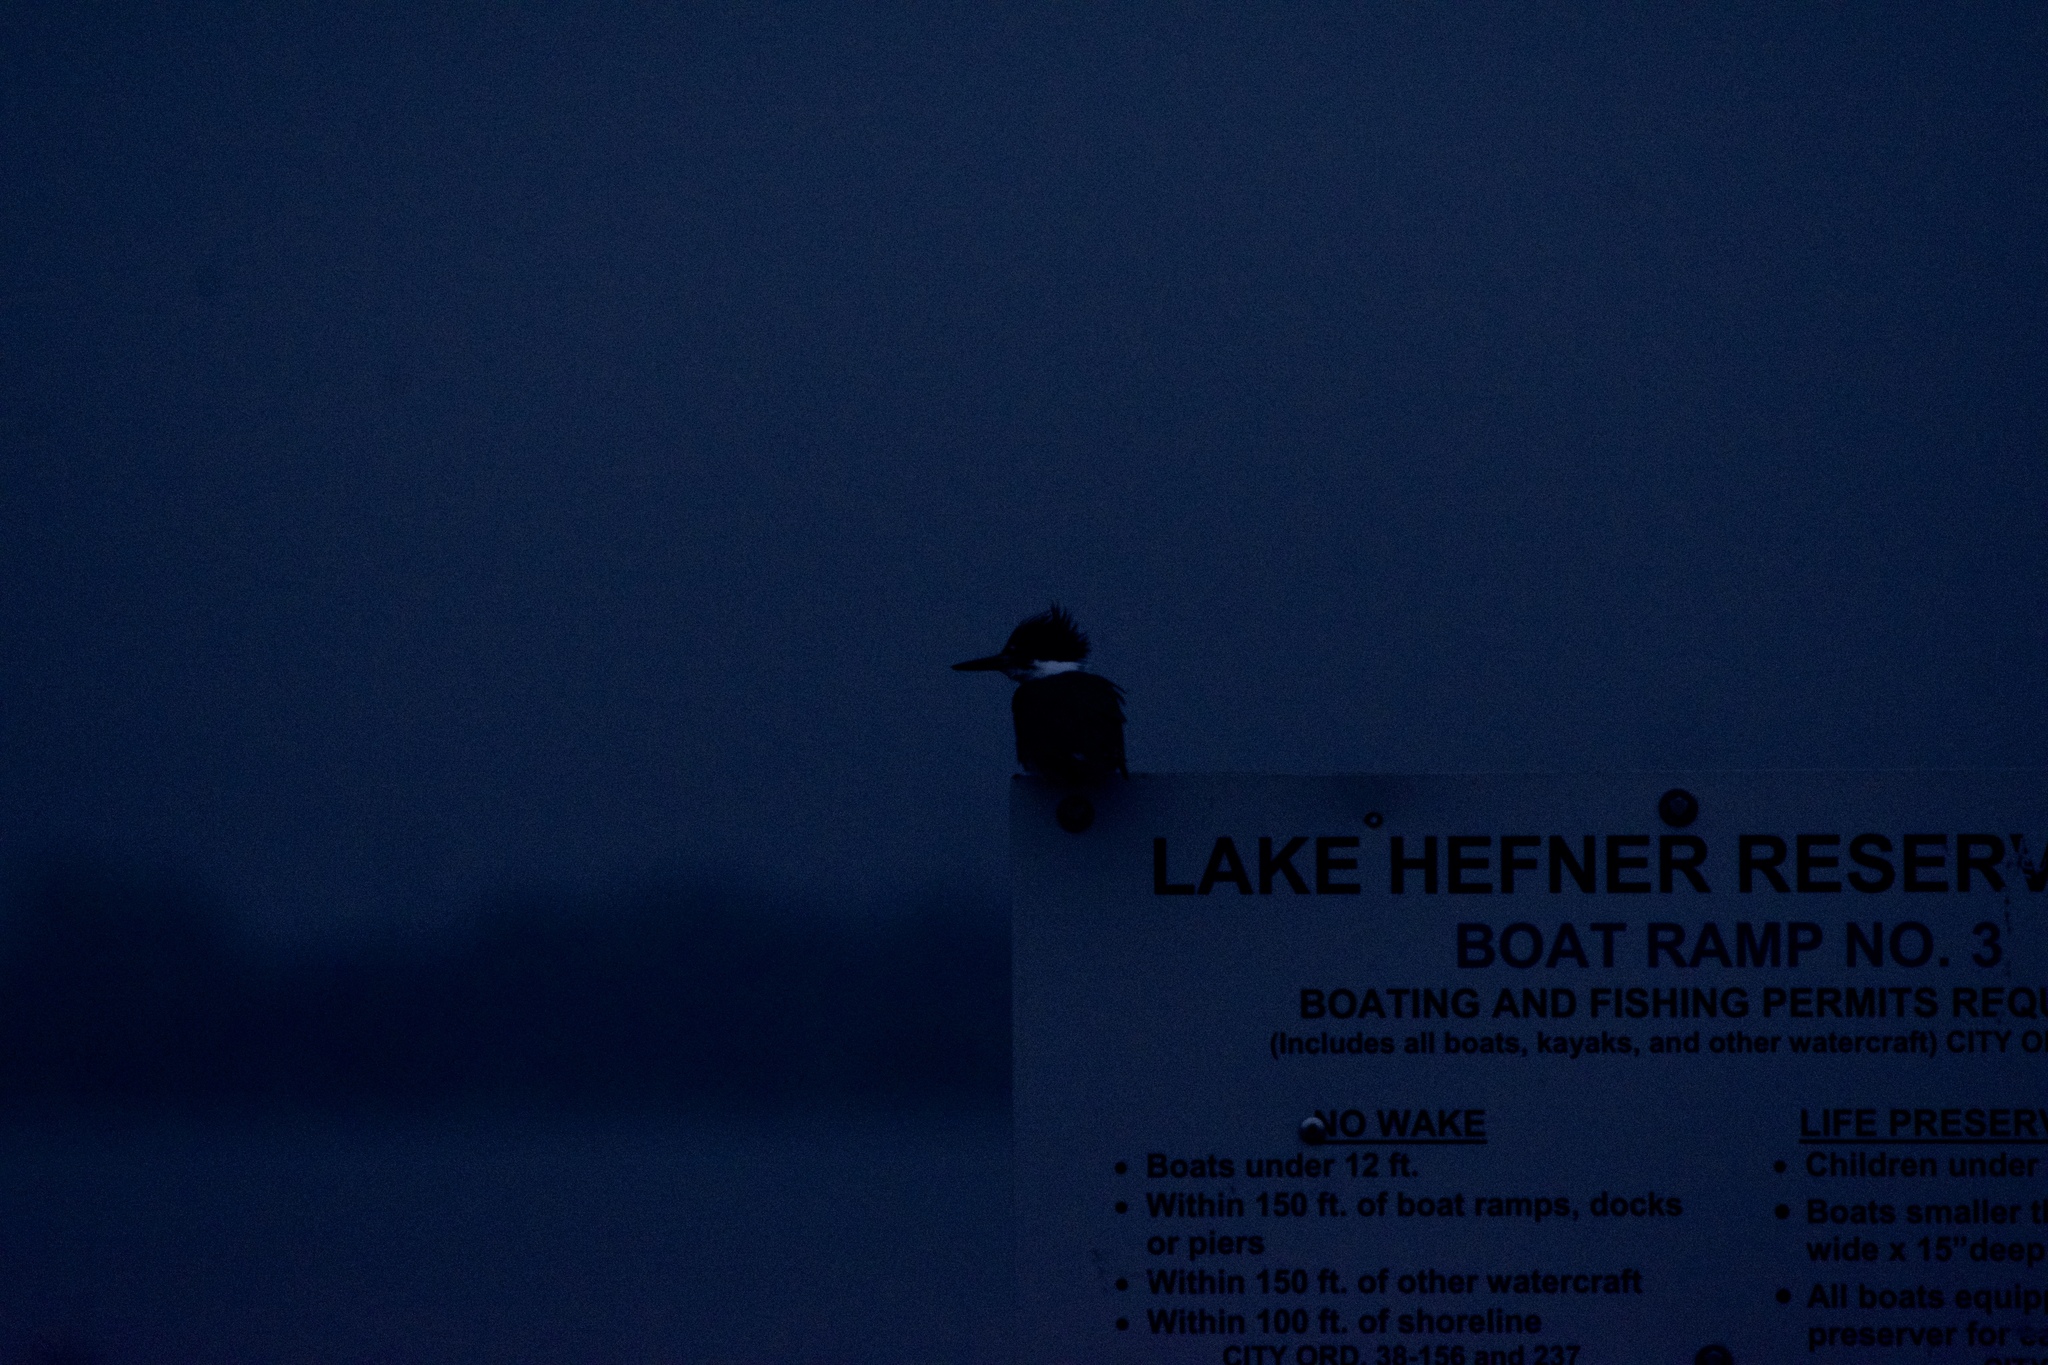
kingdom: Animalia
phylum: Chordata
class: Aves
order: Coraciiformes
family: Alcedinidae
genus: Megaceryle
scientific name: Megaceryle alcyon
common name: Belted kingfisher
